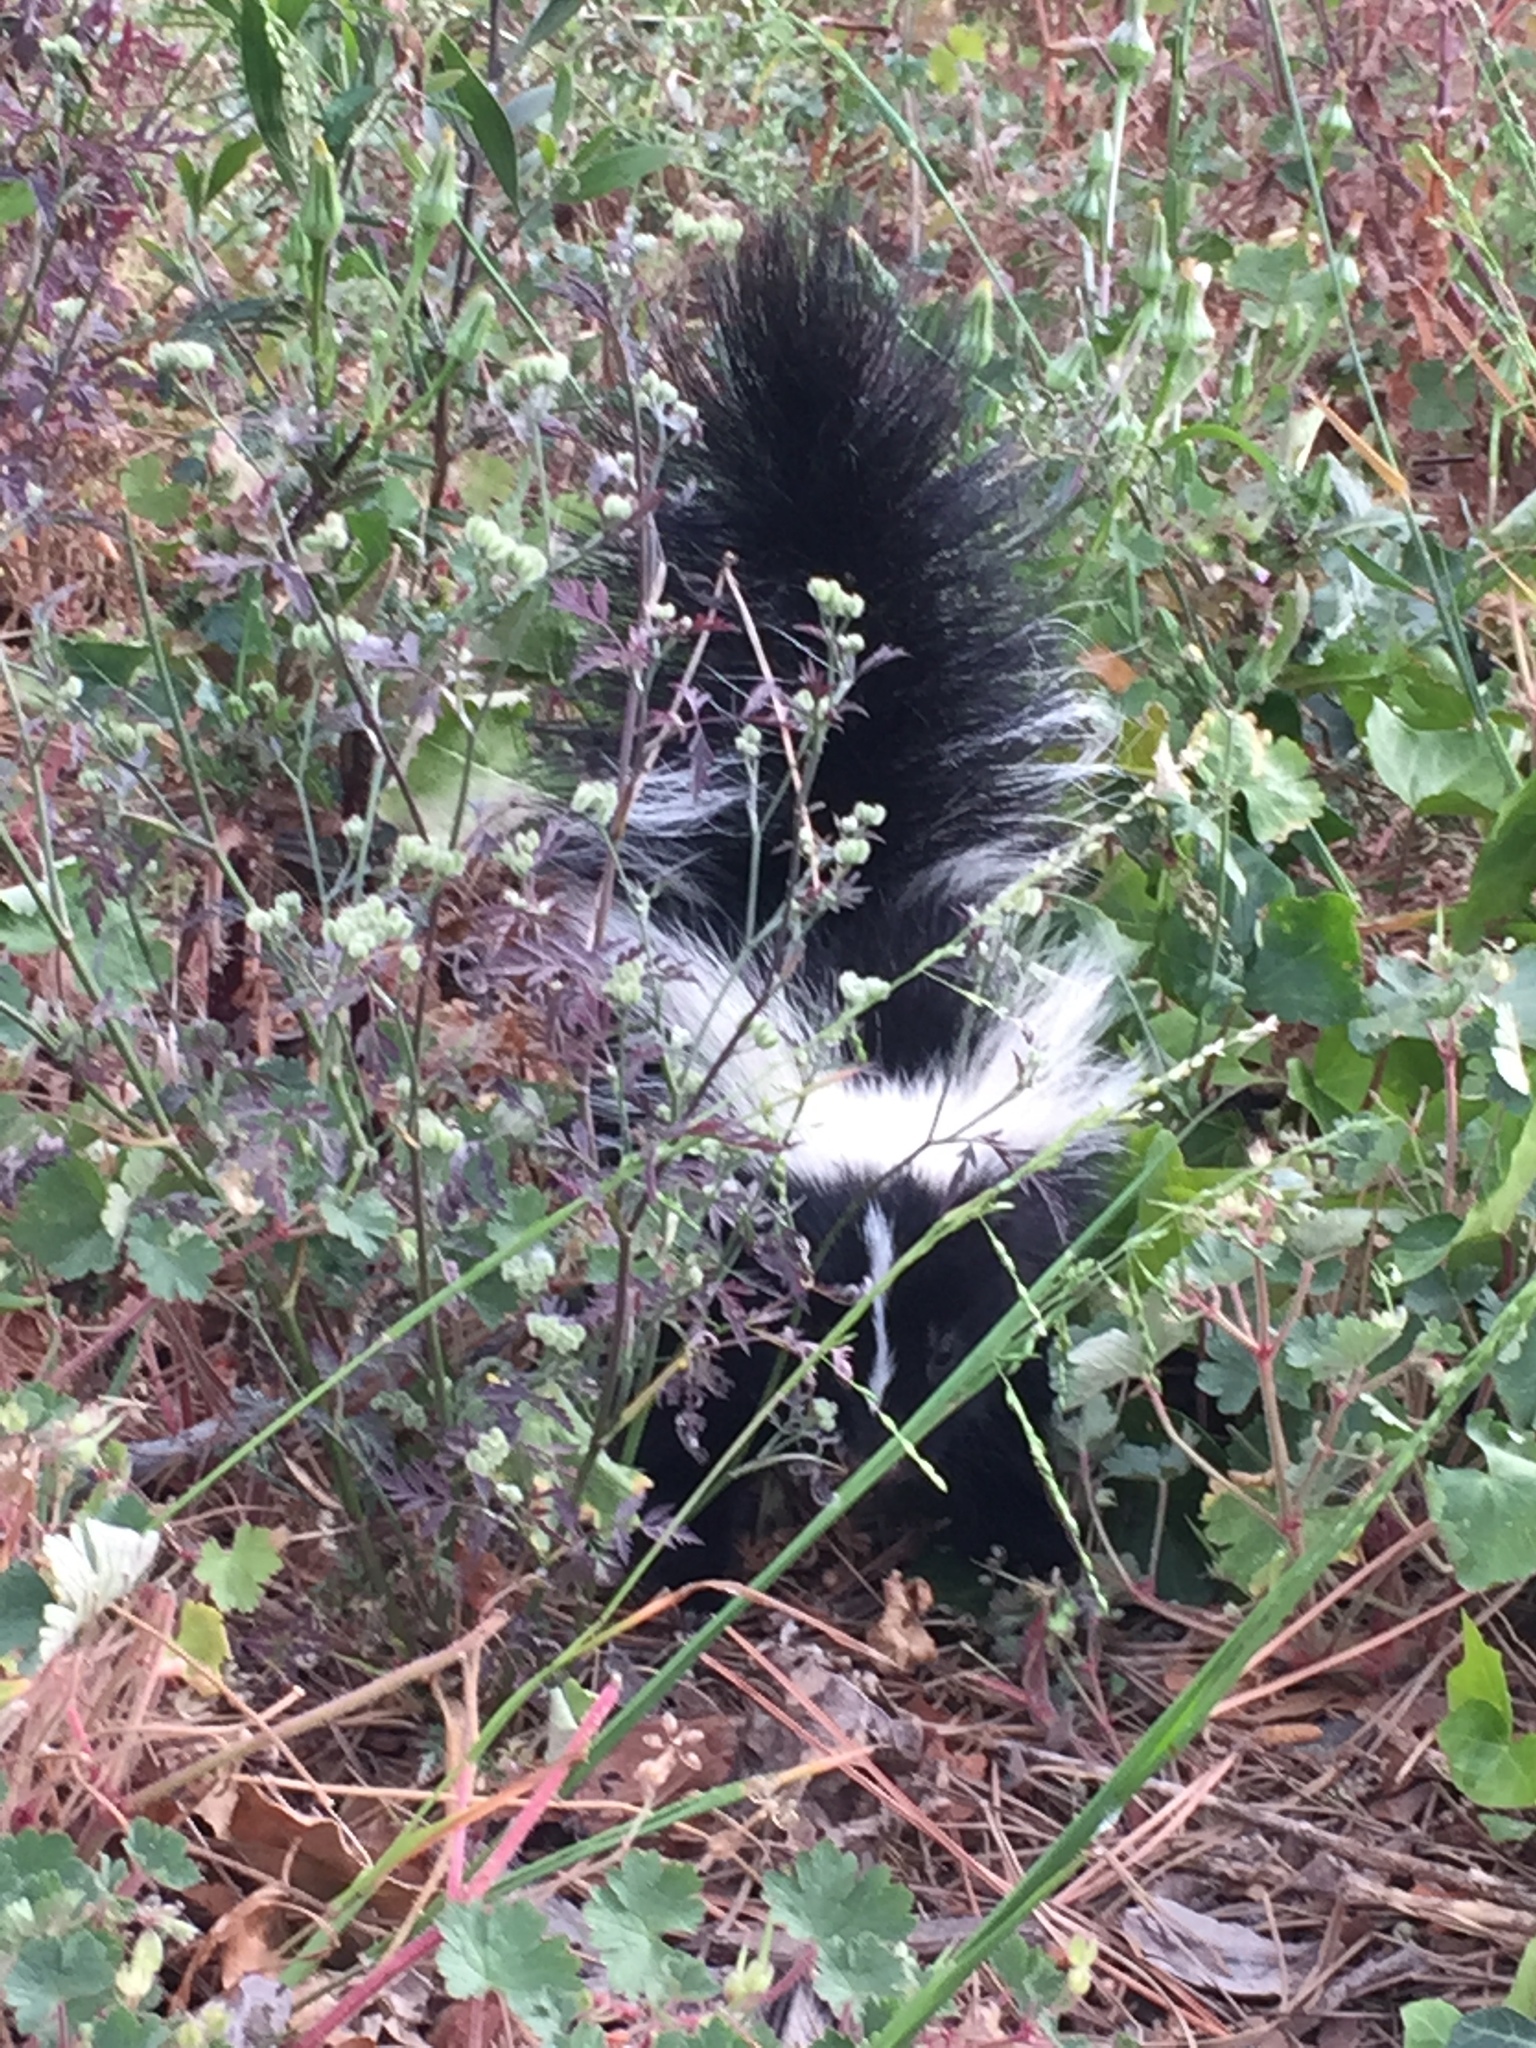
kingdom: Animalia
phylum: Chordata
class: Mammalia
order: Carnivora
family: Mephitidae
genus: Mephitis
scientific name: Mephitis mephitis
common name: Striped skunk
